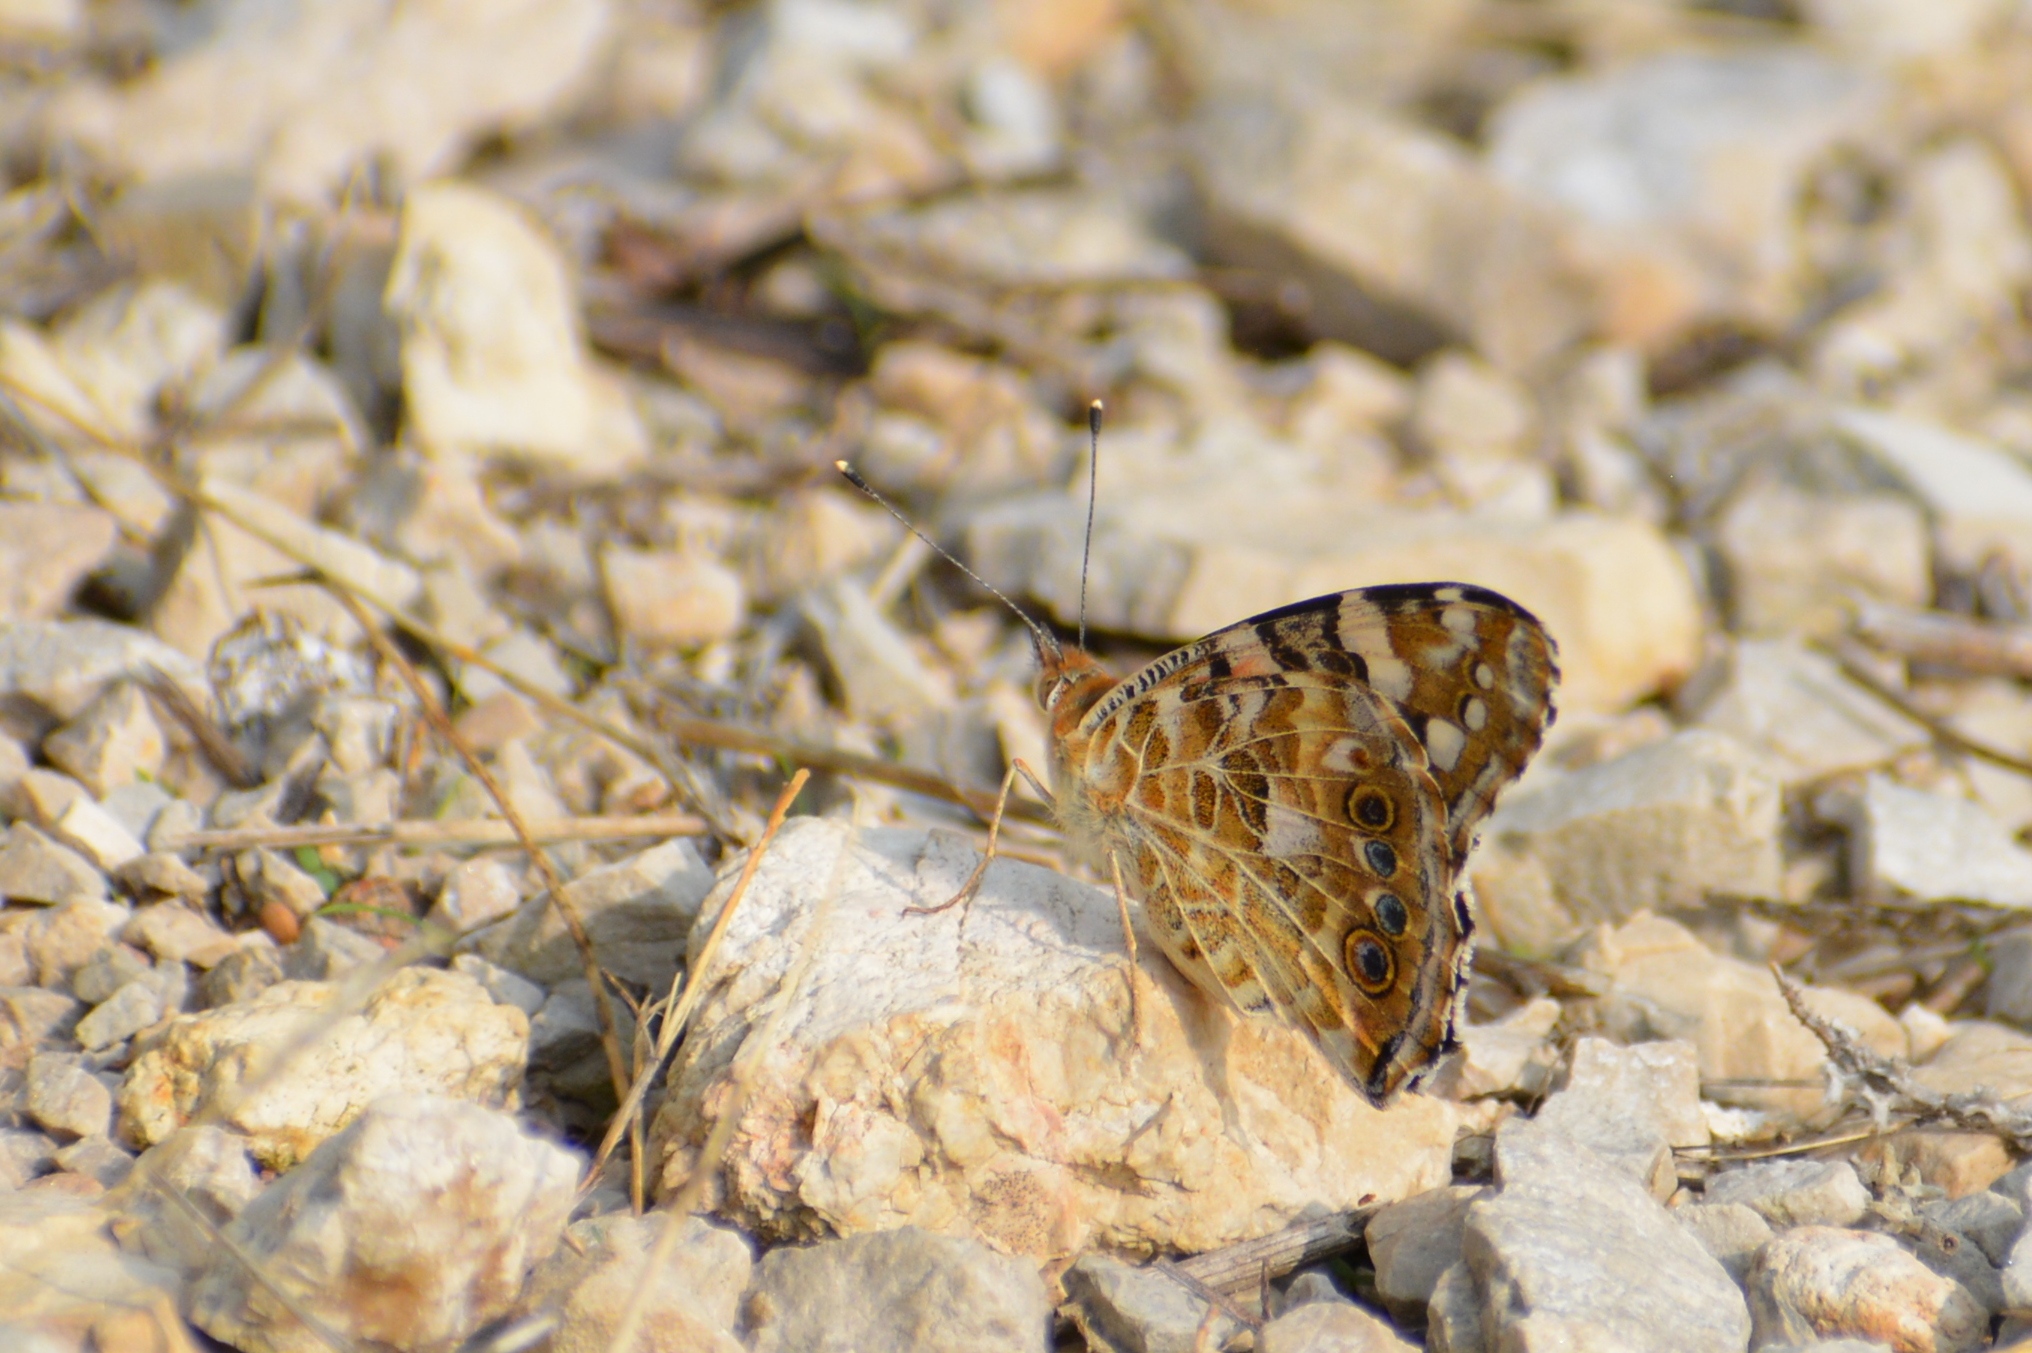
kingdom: Animalia
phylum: Arthropoda
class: Insecta
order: Lepidoptera
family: Nymphalidae
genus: Vanessa
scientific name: Vanessa cardui
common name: Painted lady
